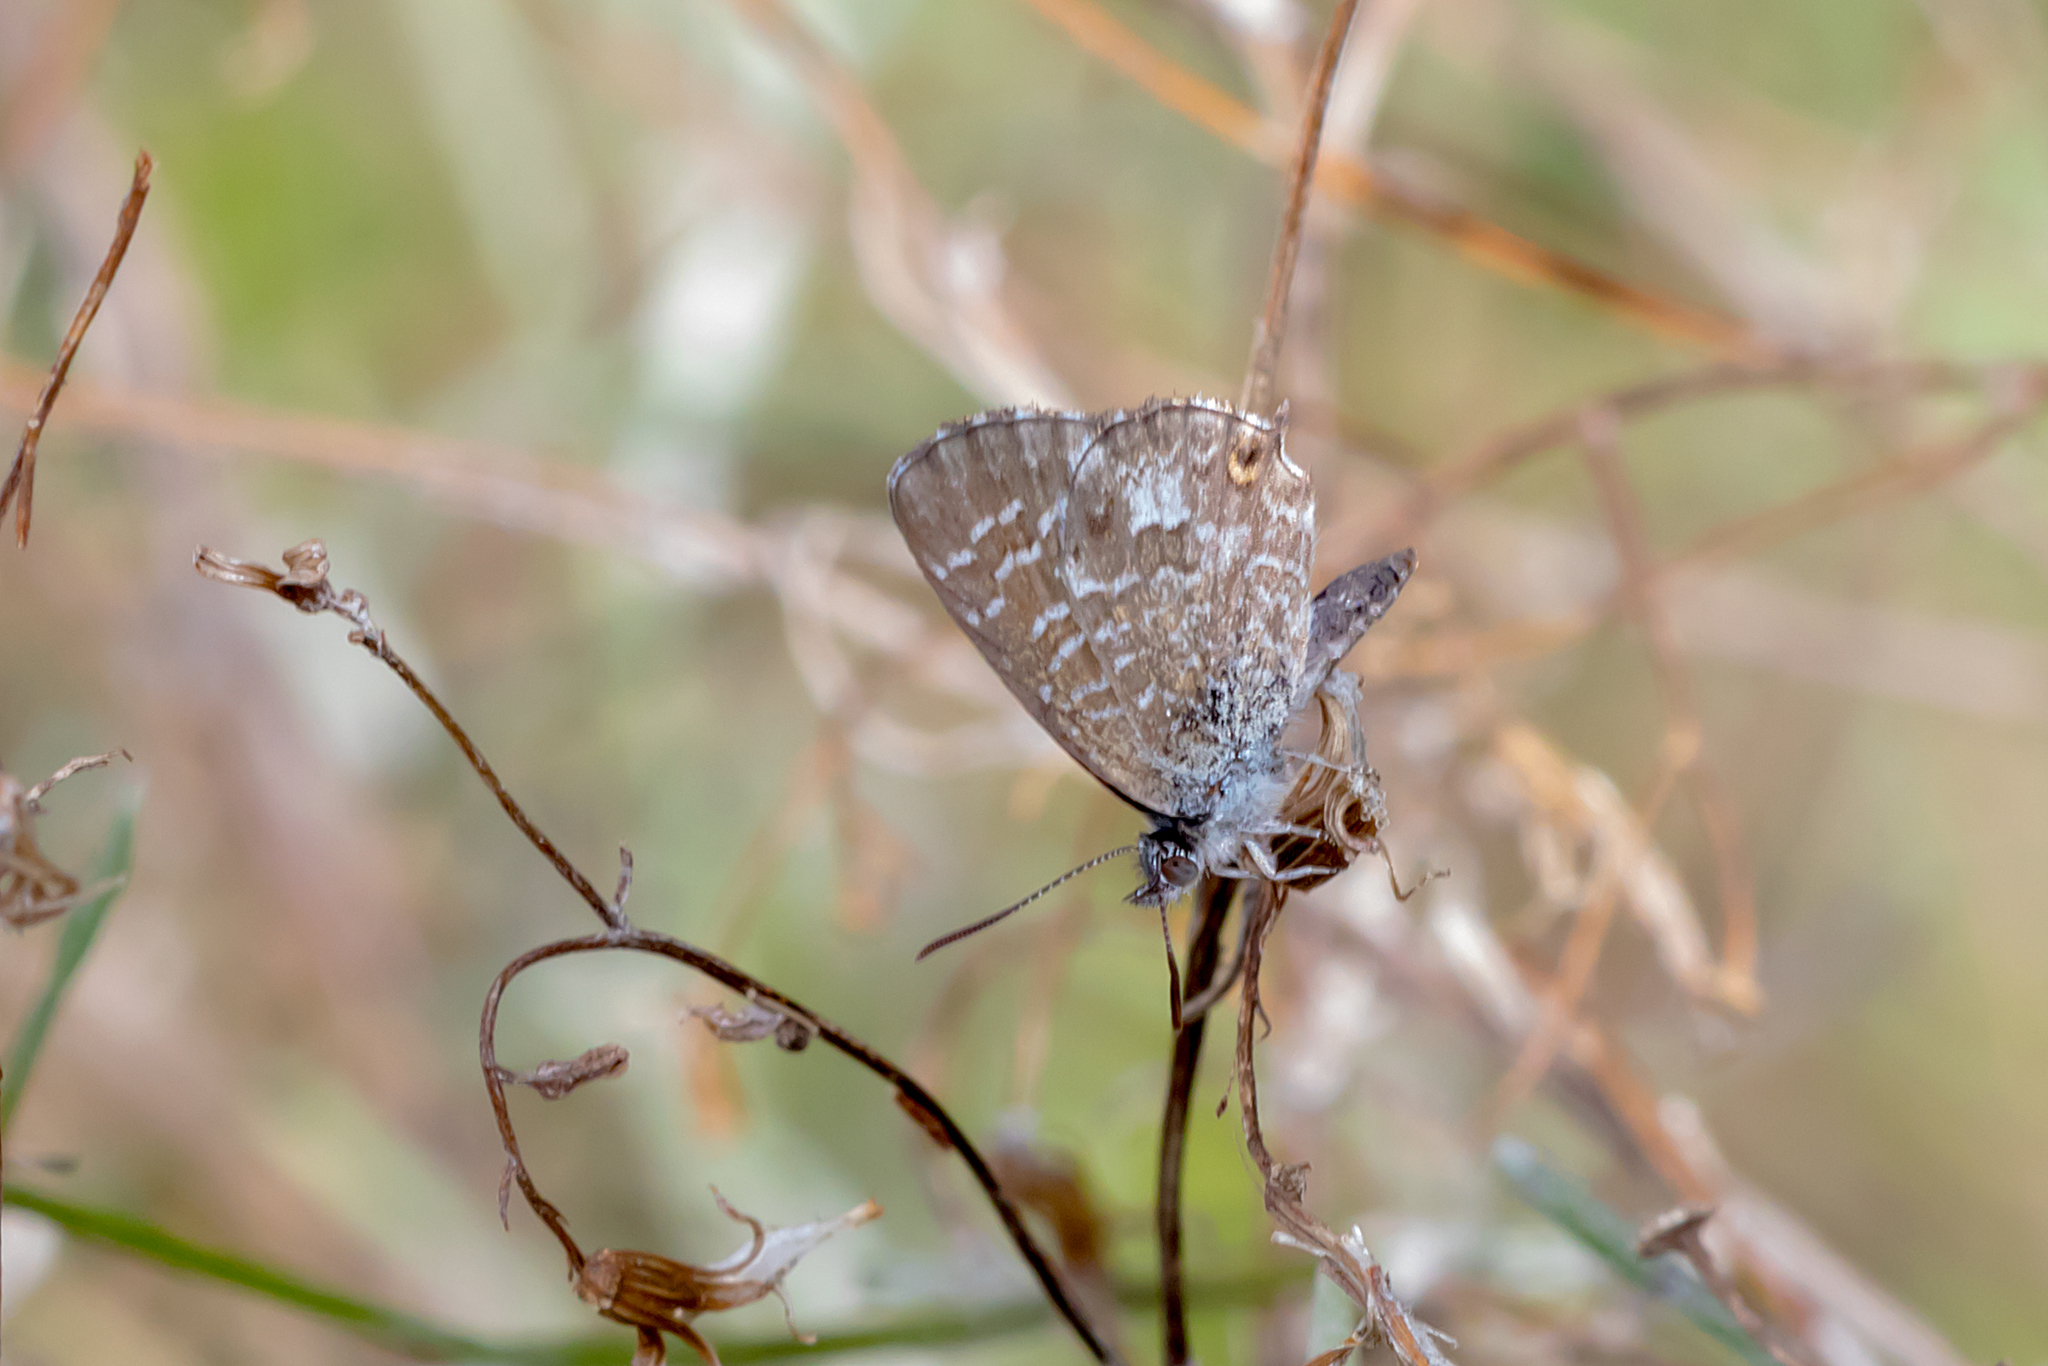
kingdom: Animalia
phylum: Arthropoda
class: Insecta
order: Lepidoptera
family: Lycaenidae
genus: Theclinesthes
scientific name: Theclinesthes serpentata
